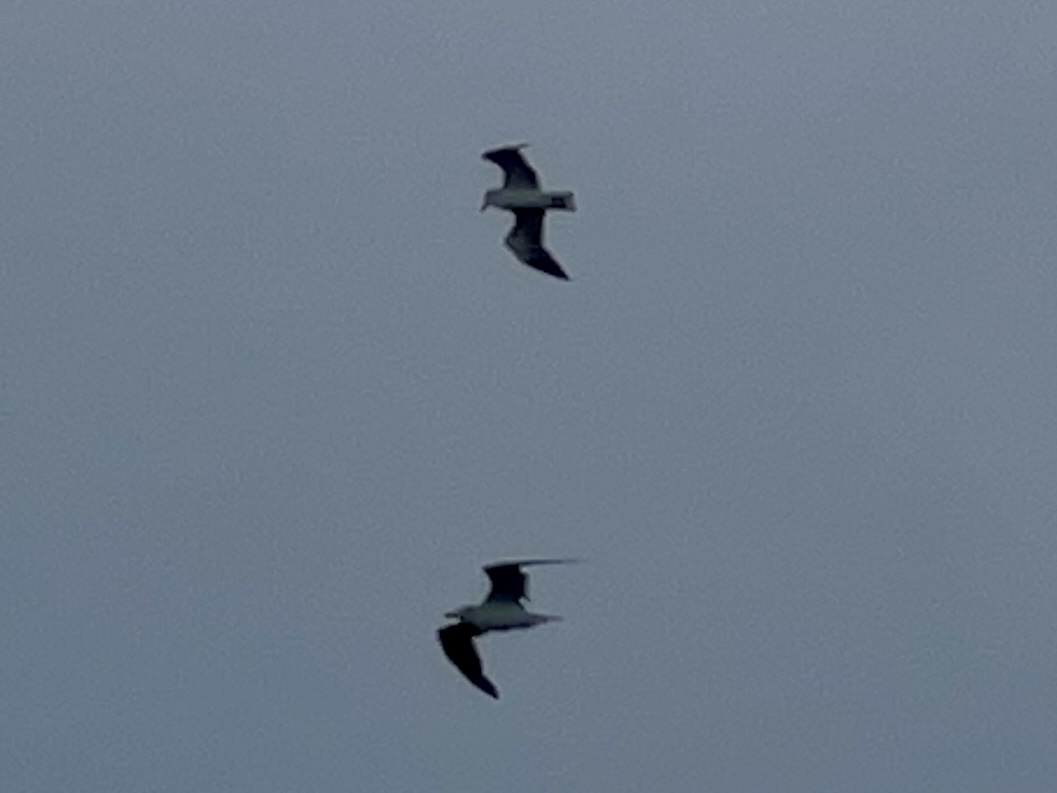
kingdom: Animalia
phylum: Chordata
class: Aves
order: Charadriiformes
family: Laridae
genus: Leucophaeus
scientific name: Leucophaeus atricilla
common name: Laughing gull
